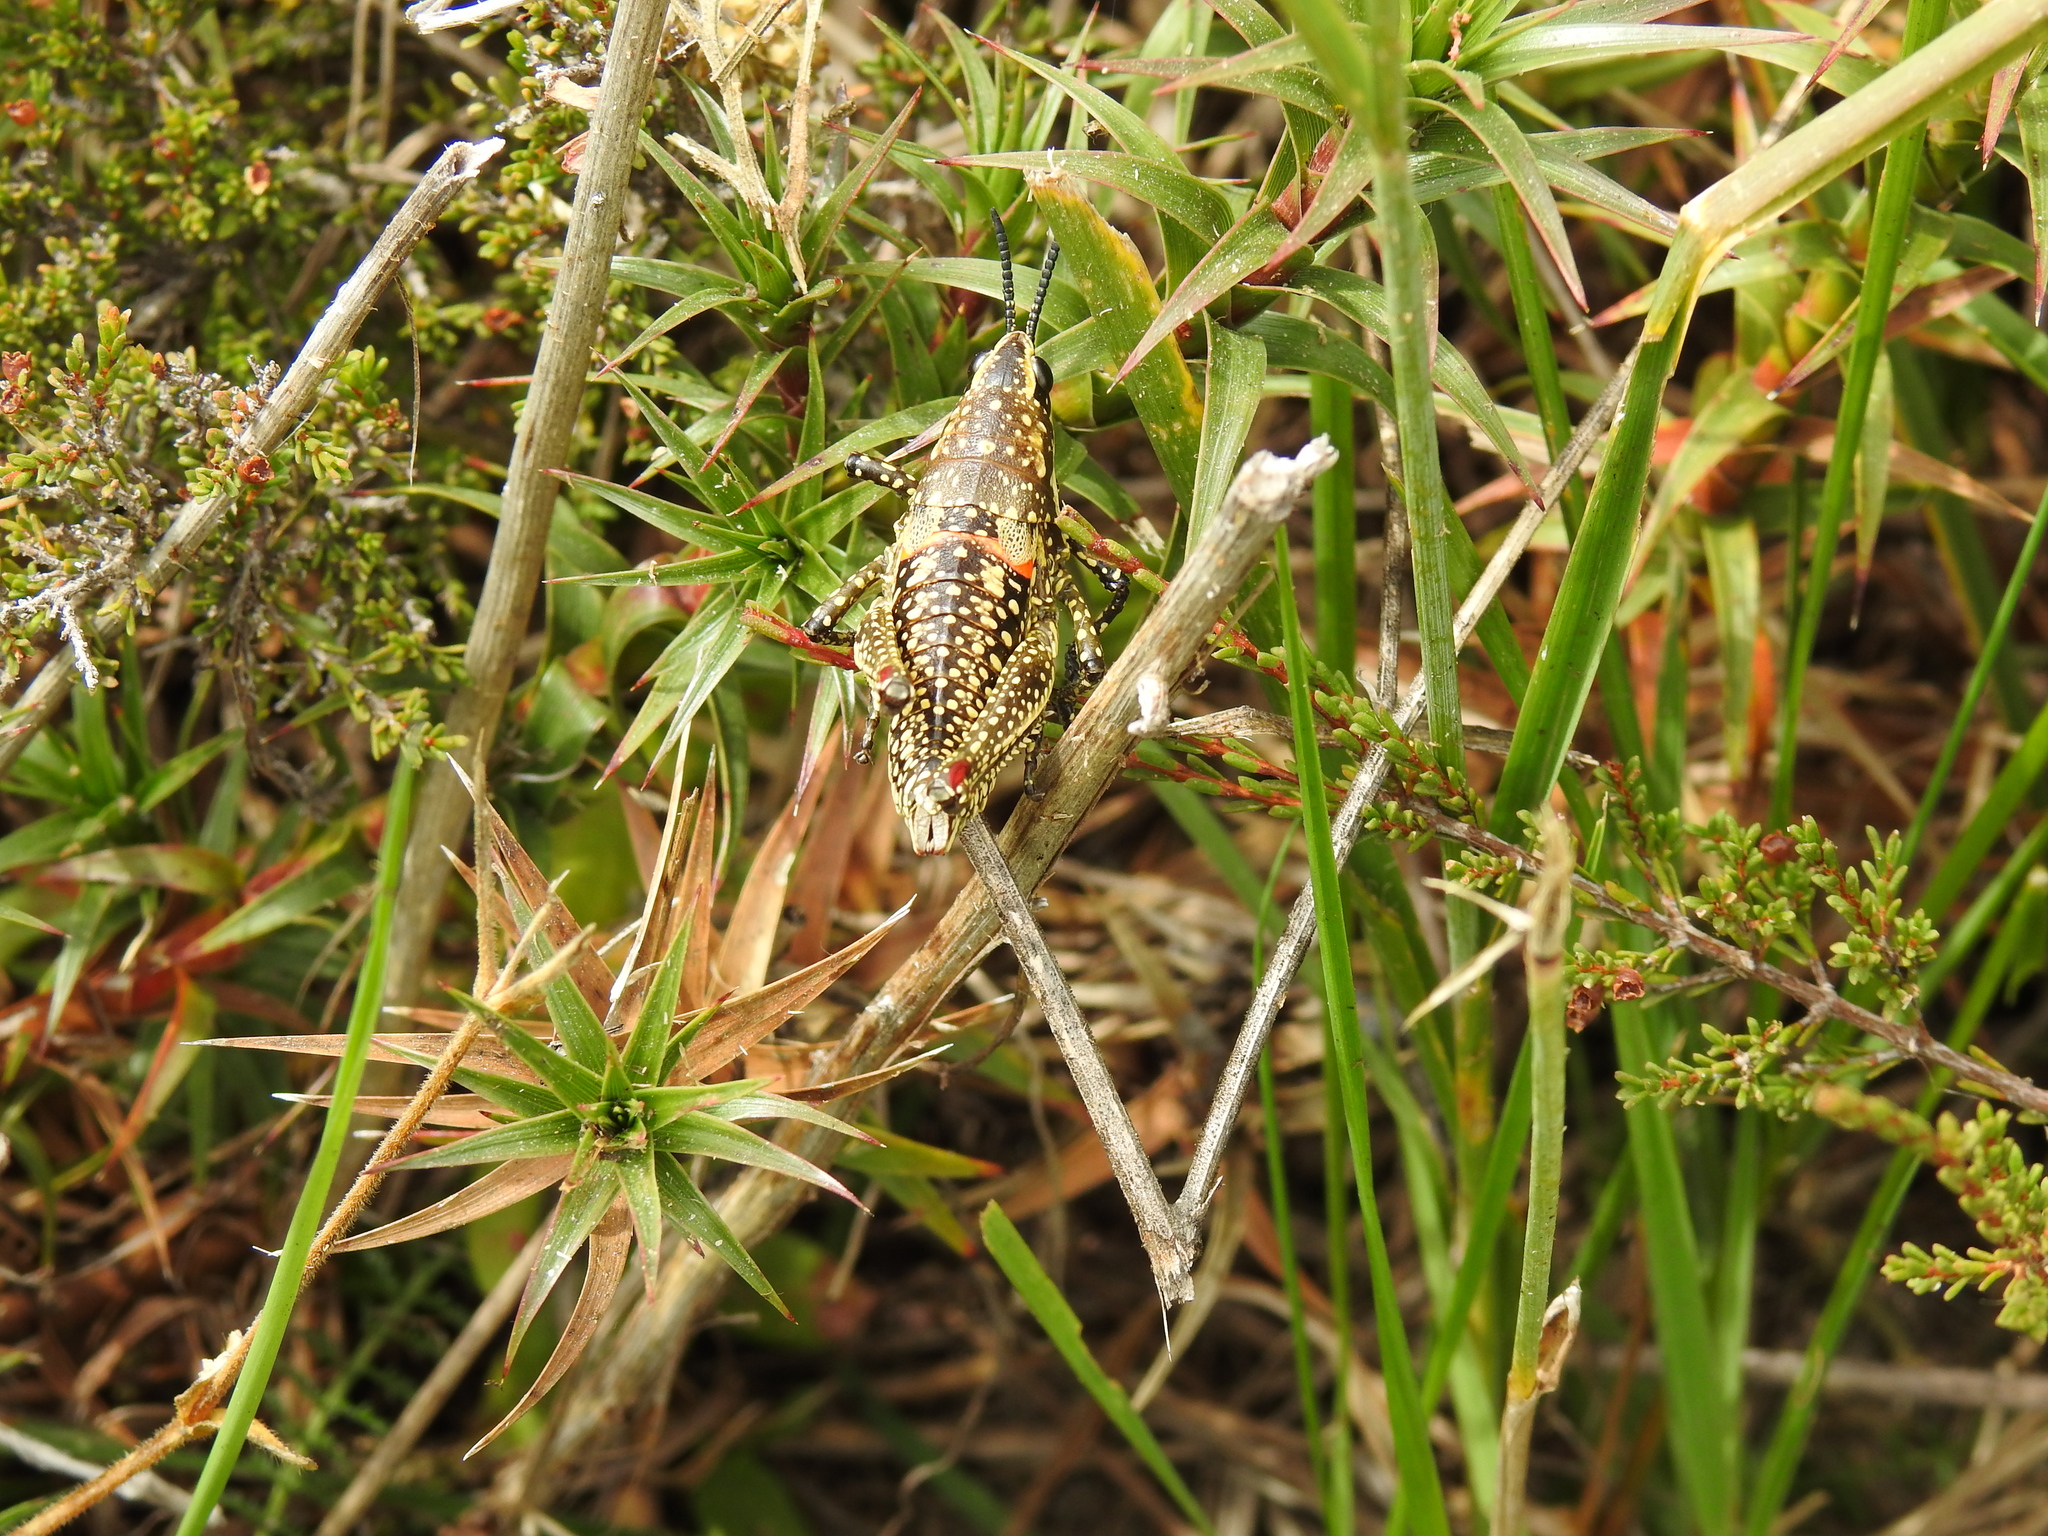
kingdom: Animalia
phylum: Arthropoda
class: Insecta
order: Orthoptera
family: Pyrgomorphidae
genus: Monistria
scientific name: Monistria concinna
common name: Southern pyrgomorph
